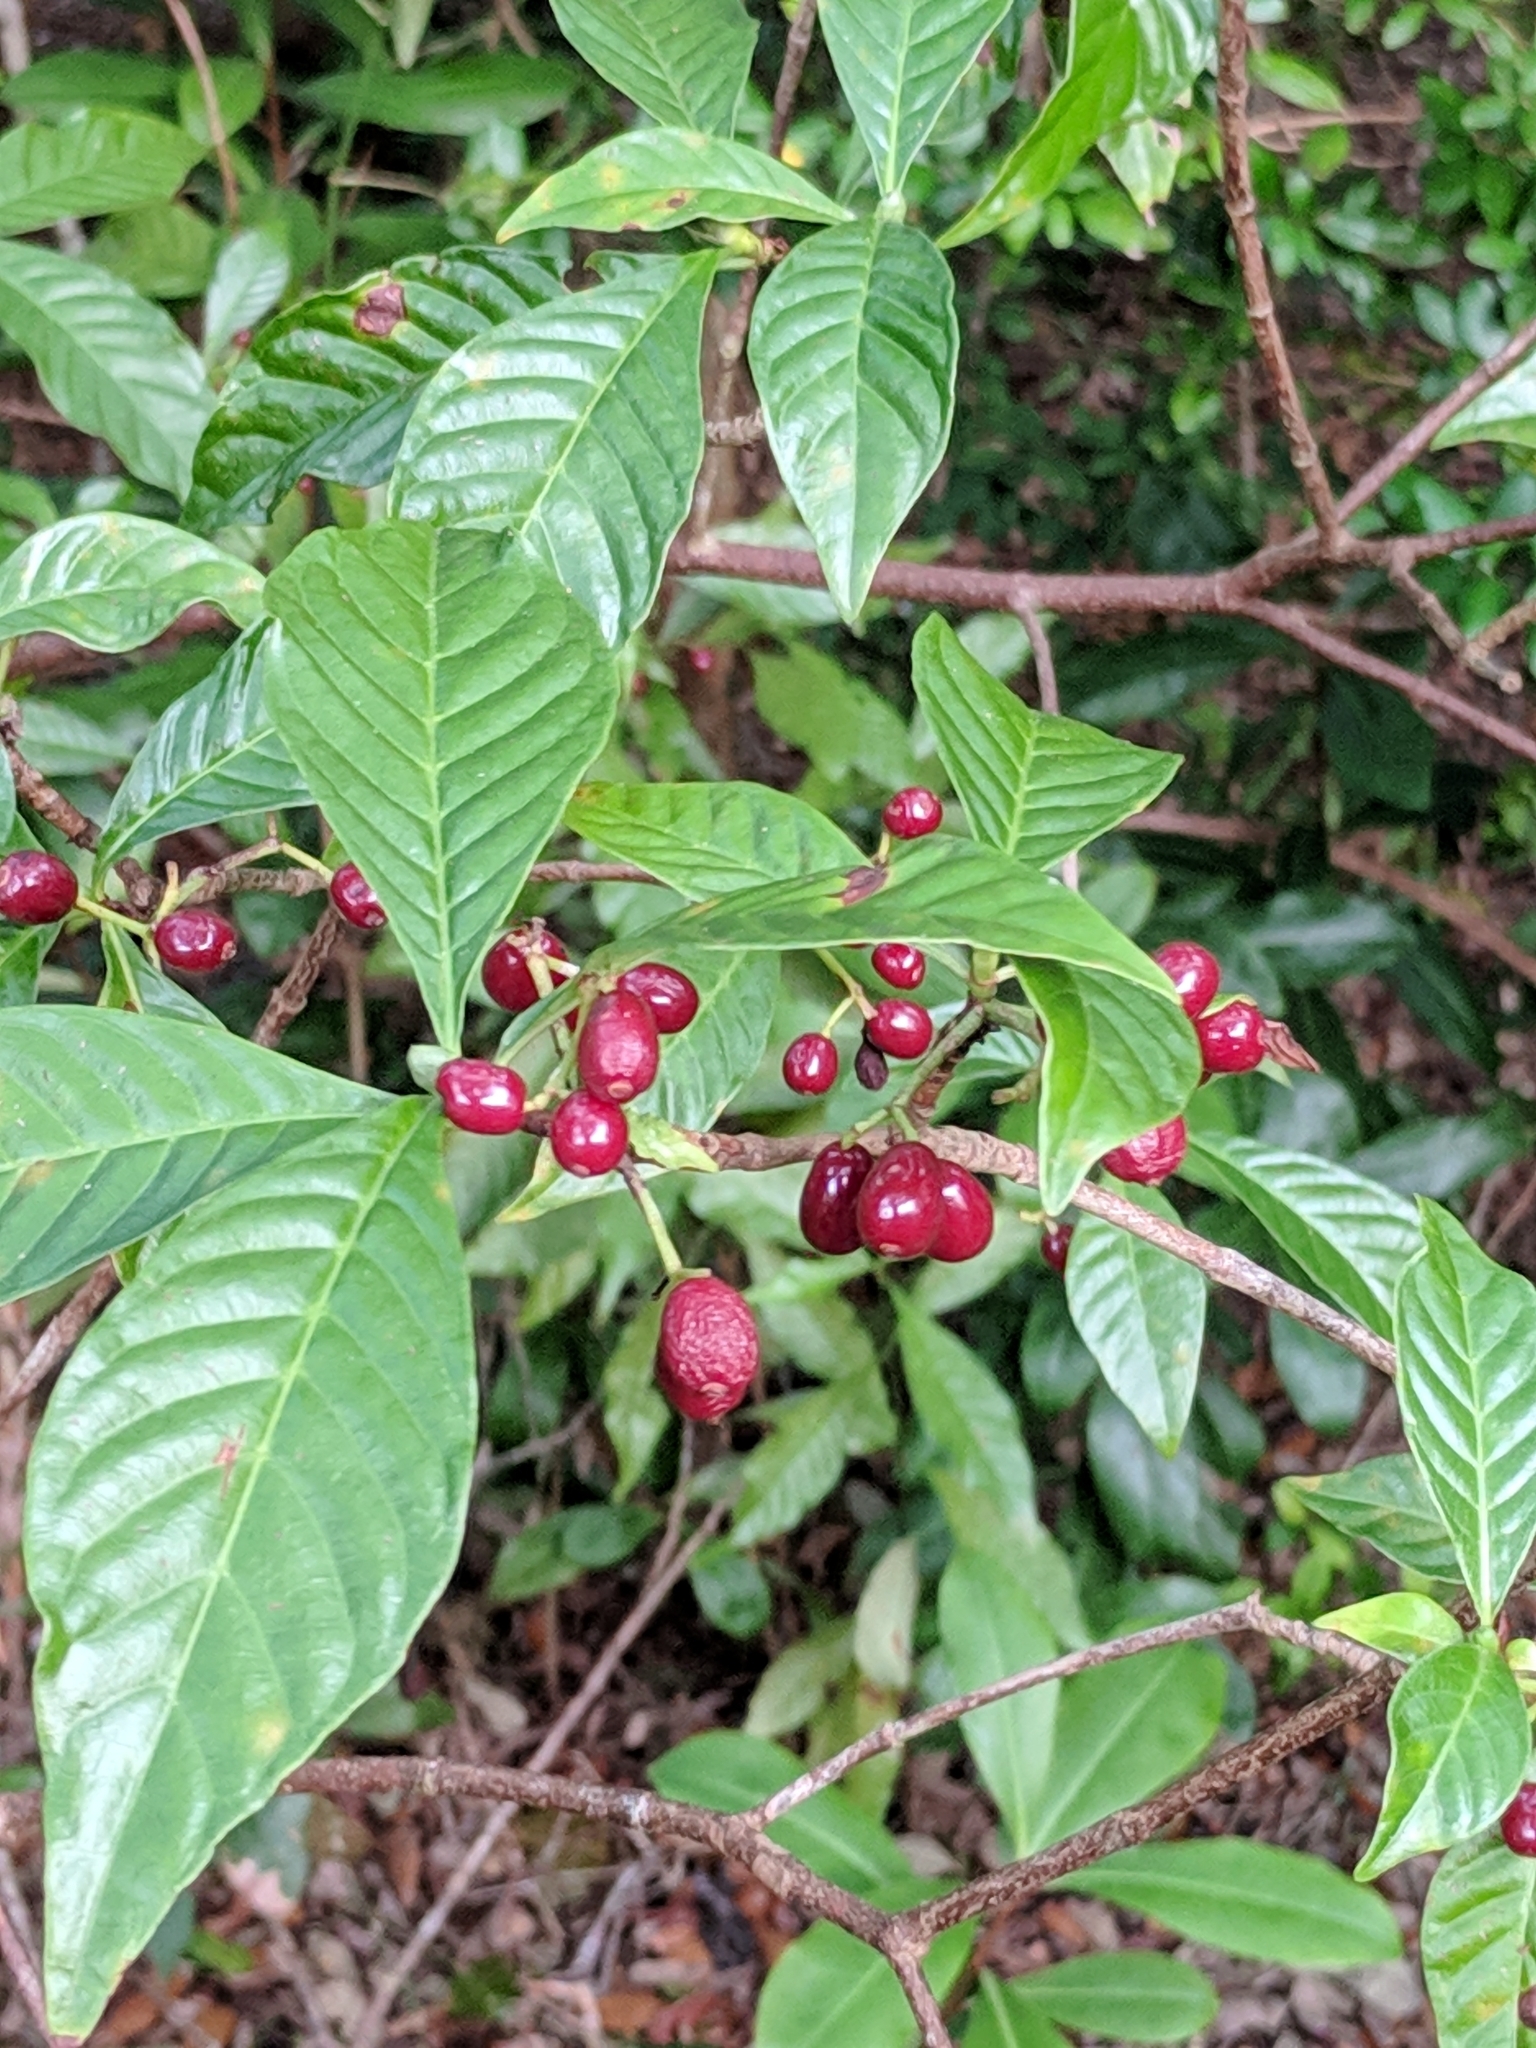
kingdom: Plantae
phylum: Tracheophyta
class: Magnoliopsida
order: Gentianales
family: Rubiaceae
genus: Psychotria
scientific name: Psychotria nervosa
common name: Bastard cankerberry
